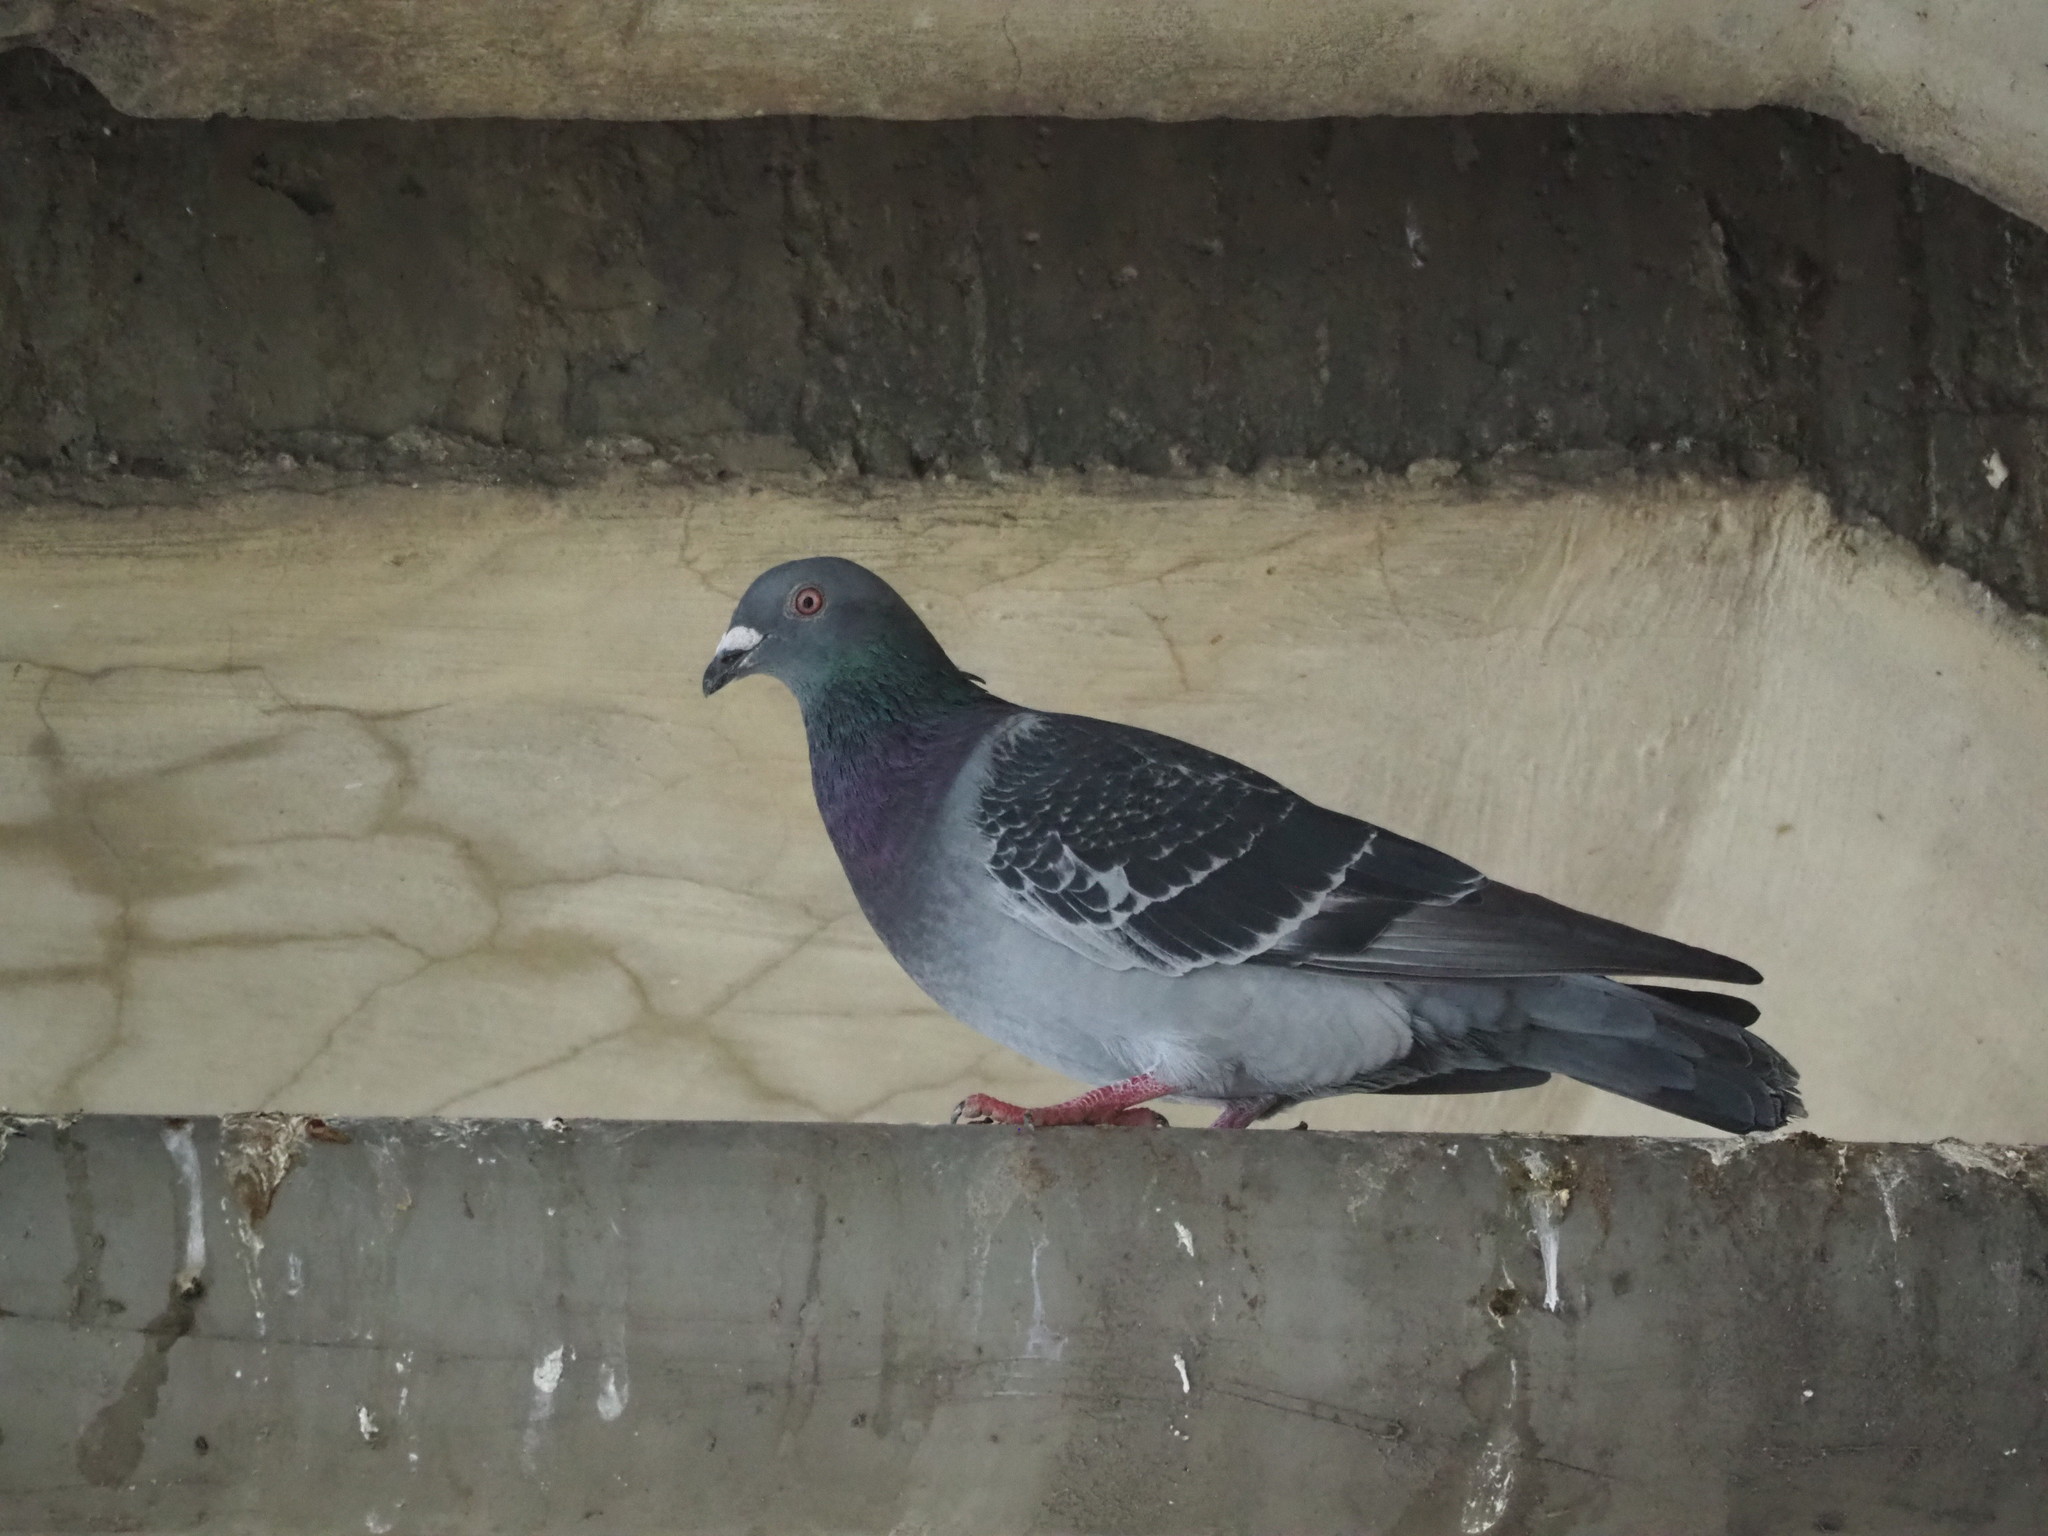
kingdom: Animalia
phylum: Chordata
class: Aves
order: Columbiformes
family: Columbidae
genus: Columba
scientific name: Columba livia
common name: Rock pigeon
